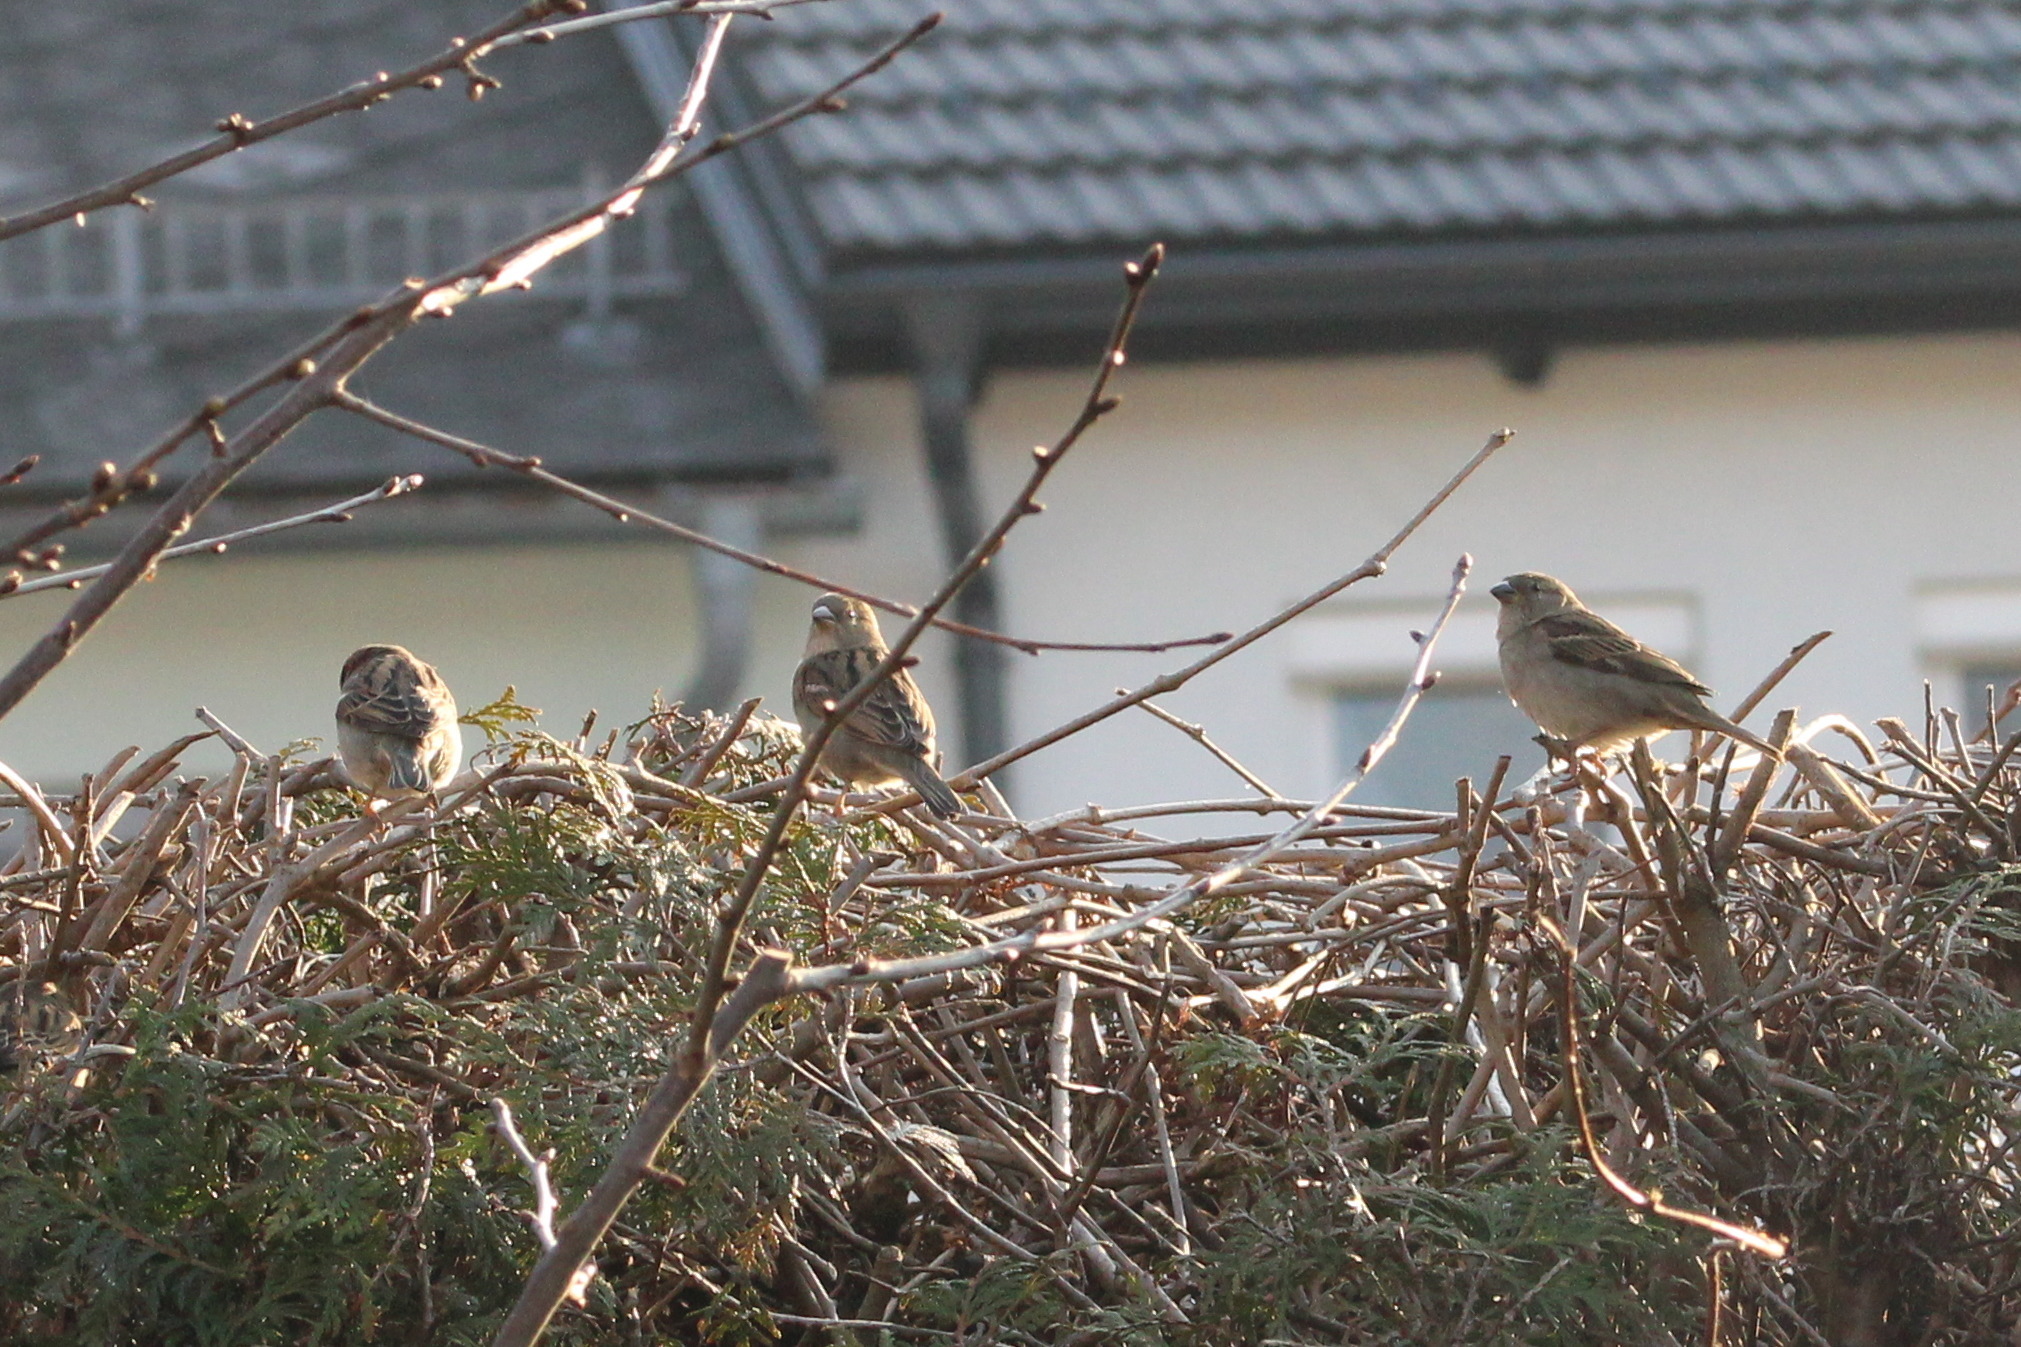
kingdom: Animalia
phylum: Chordata
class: Aves
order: Passeriformes
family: Passeridae
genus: Passer
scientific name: Passer domesticus
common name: House sparrow
